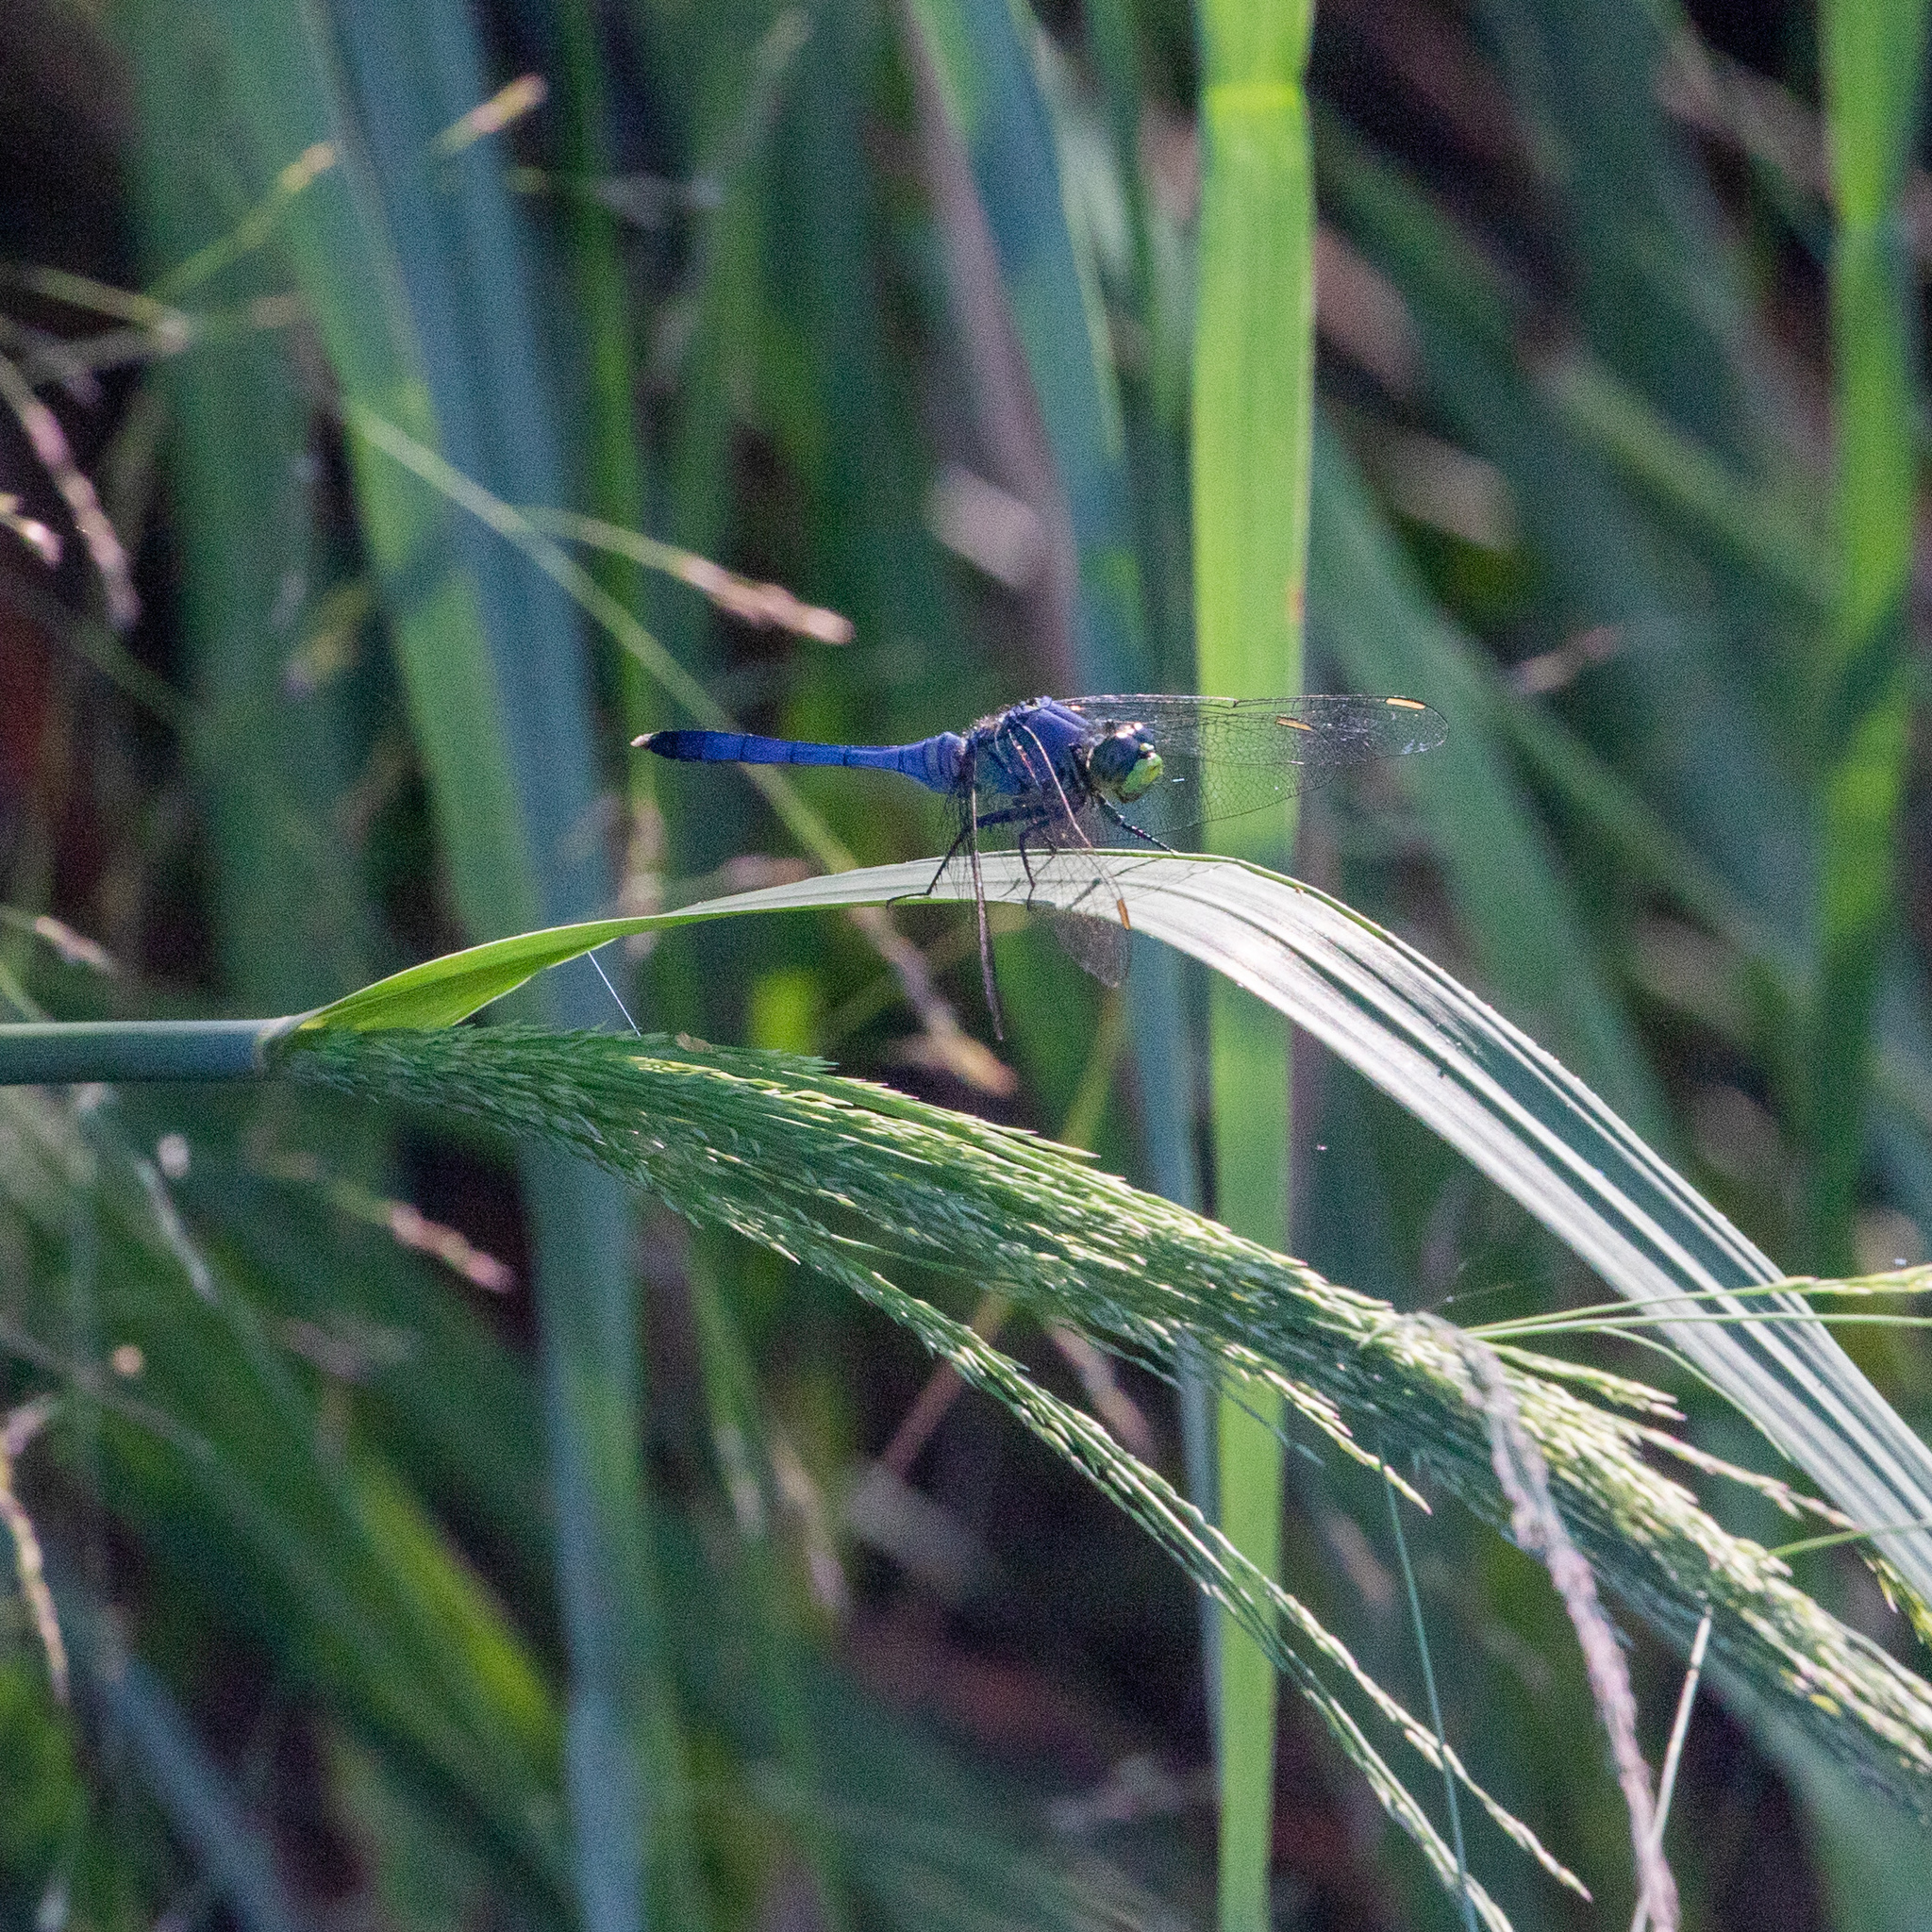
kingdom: Animalia
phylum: Arthropoda
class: Insecta
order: Odonata
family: Libellulidae
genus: Erythemis
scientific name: Erythemis simplicicollis
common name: Eastern pondhawk
